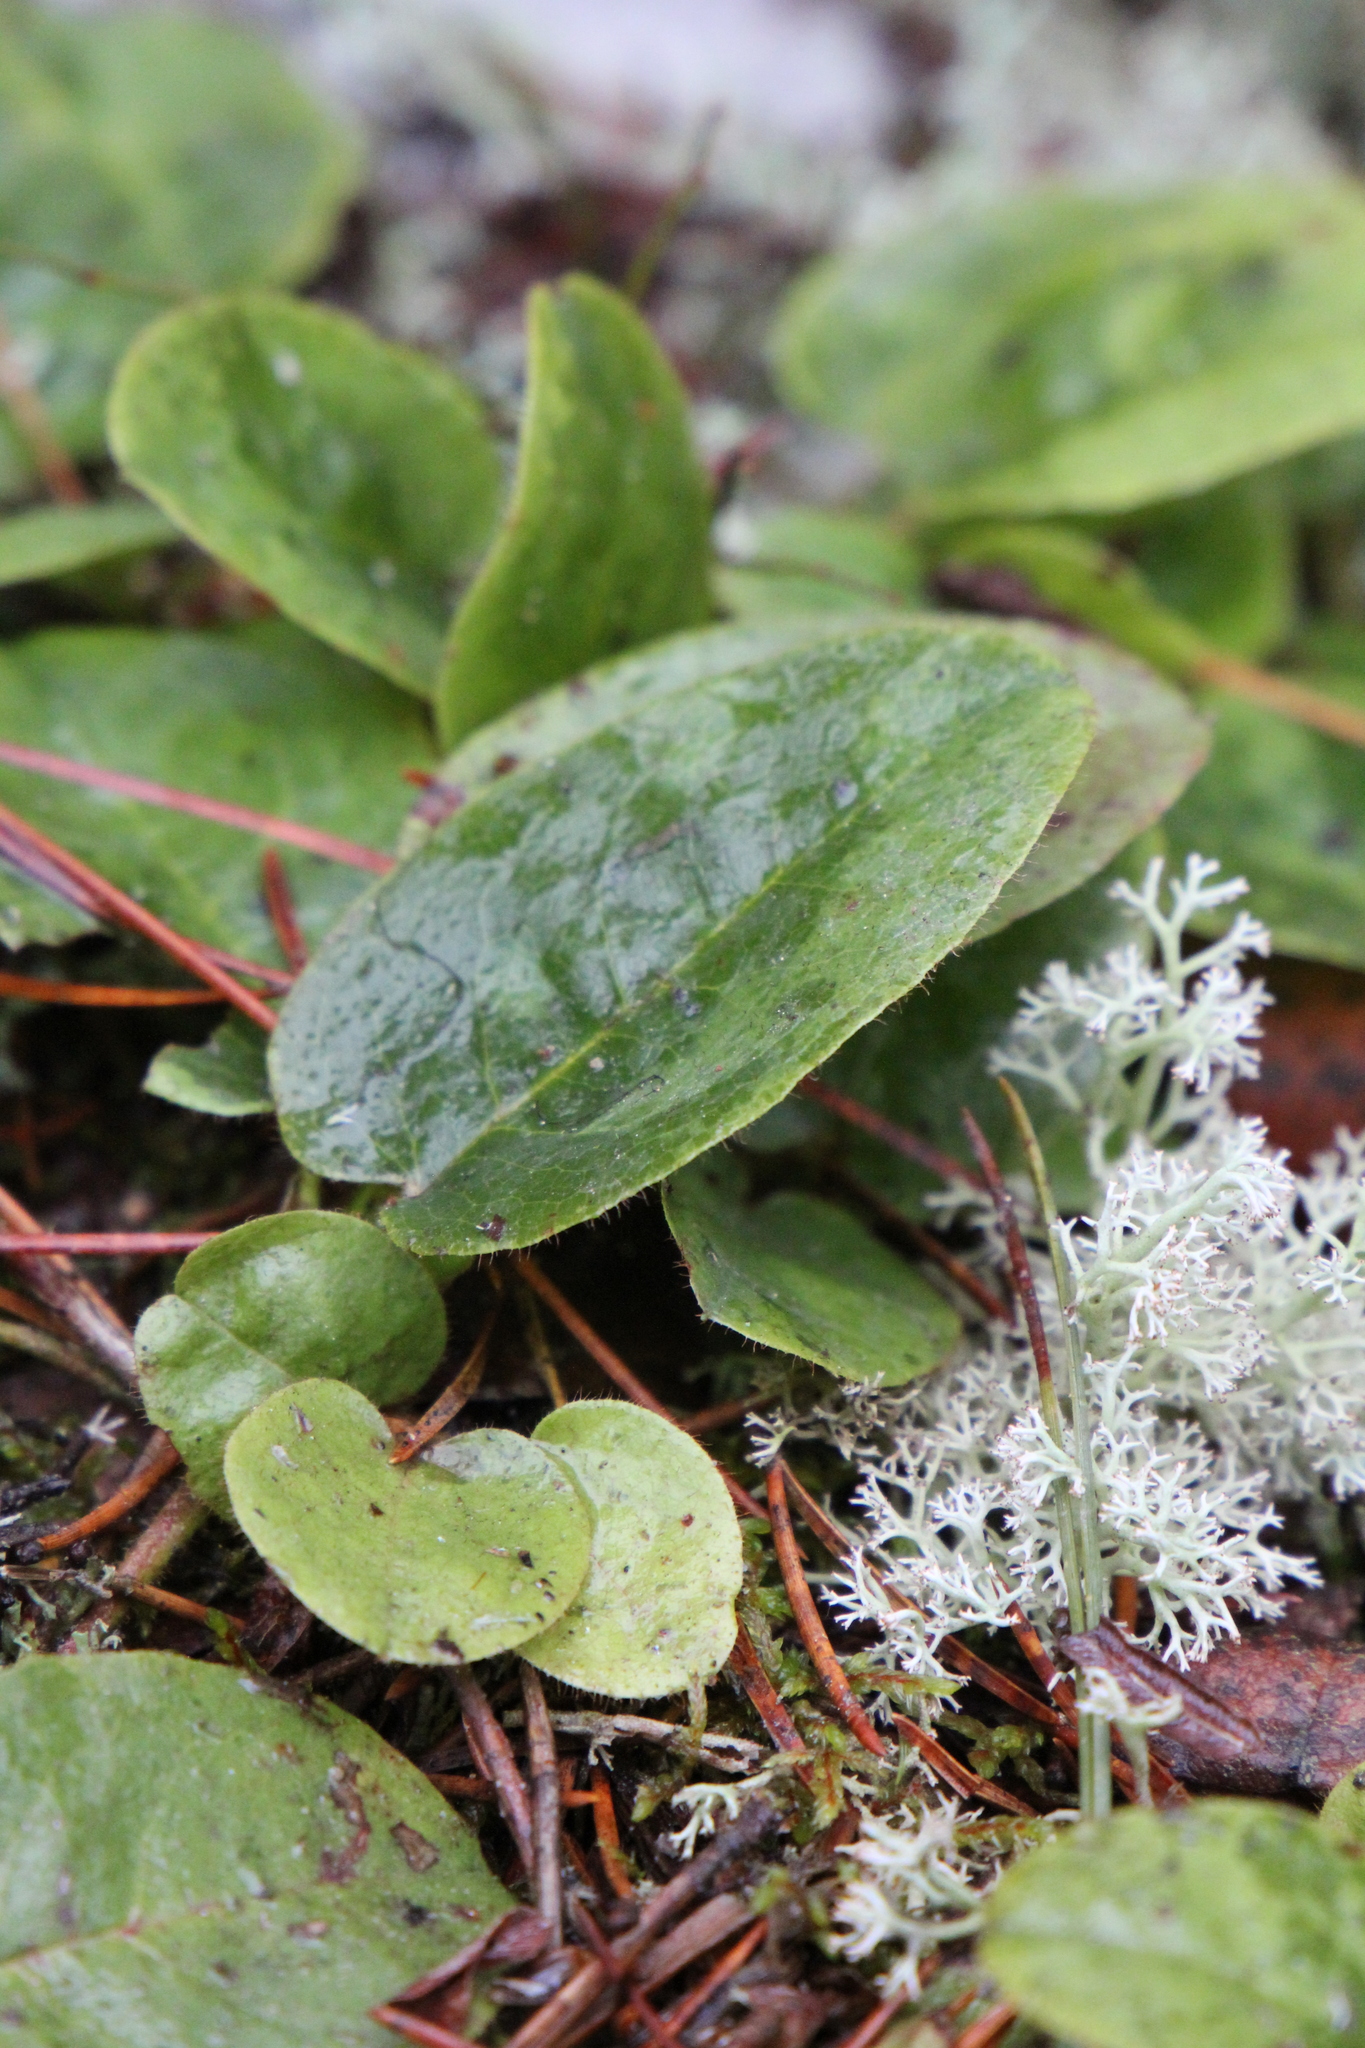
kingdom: Plantae
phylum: Tracheophyta
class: Magnoliopsida
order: Ericales
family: Ericaceae
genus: Epigaea
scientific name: Epigaea repens
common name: Gravelroot
